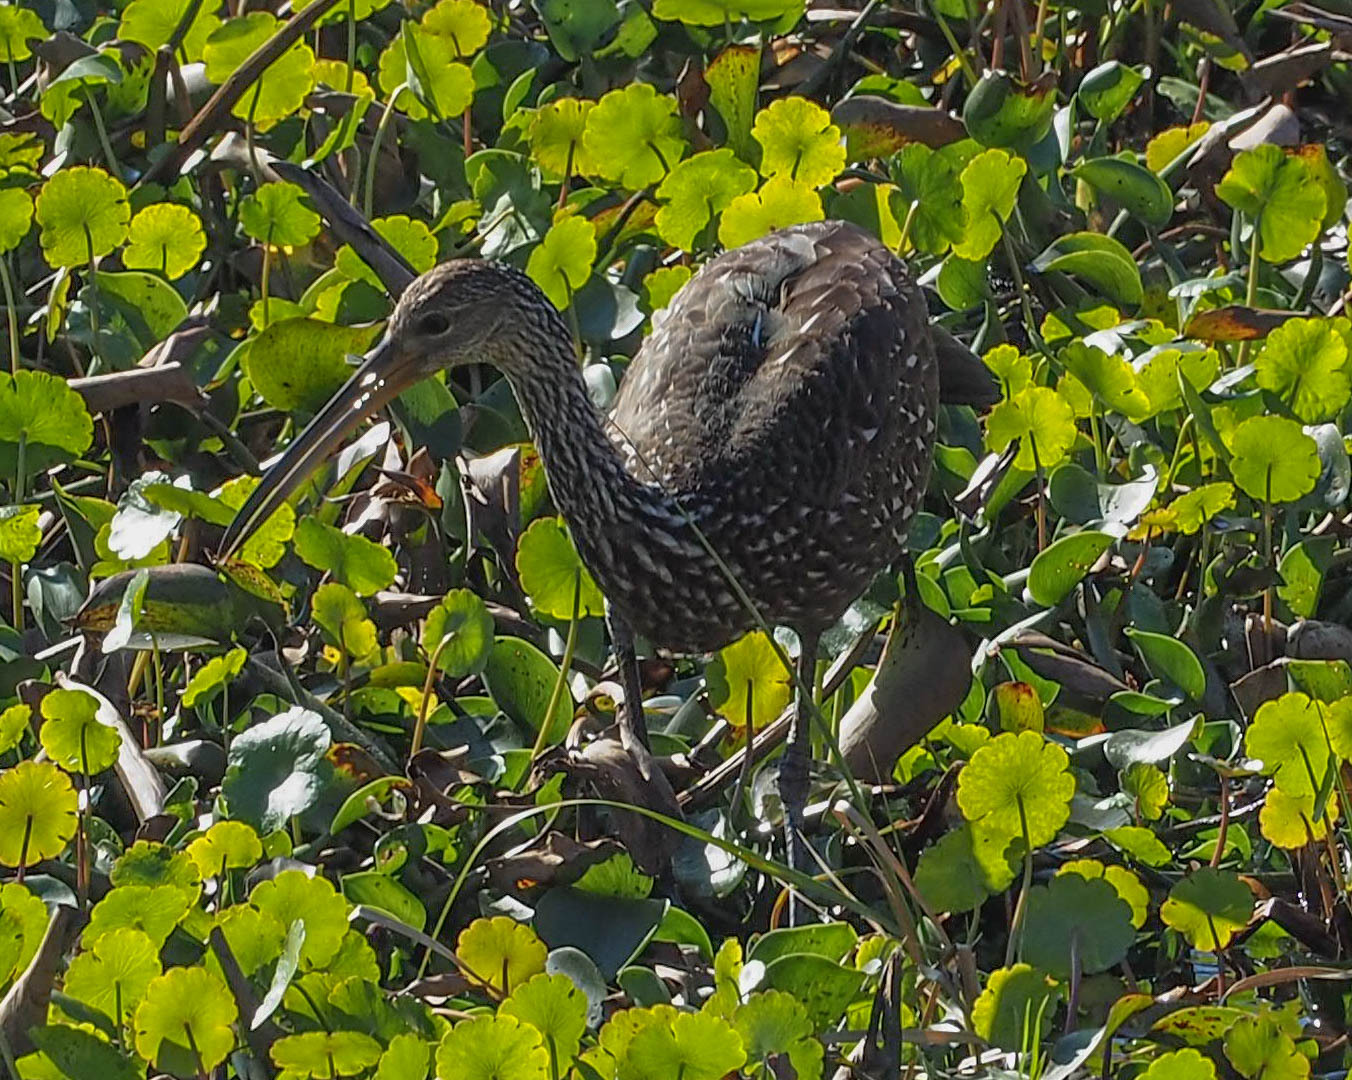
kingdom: Animalia
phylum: Chordata
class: Aves
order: Gruiformes
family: Aramidae
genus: Aramus
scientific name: Aramus guarauna
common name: Limpkin
